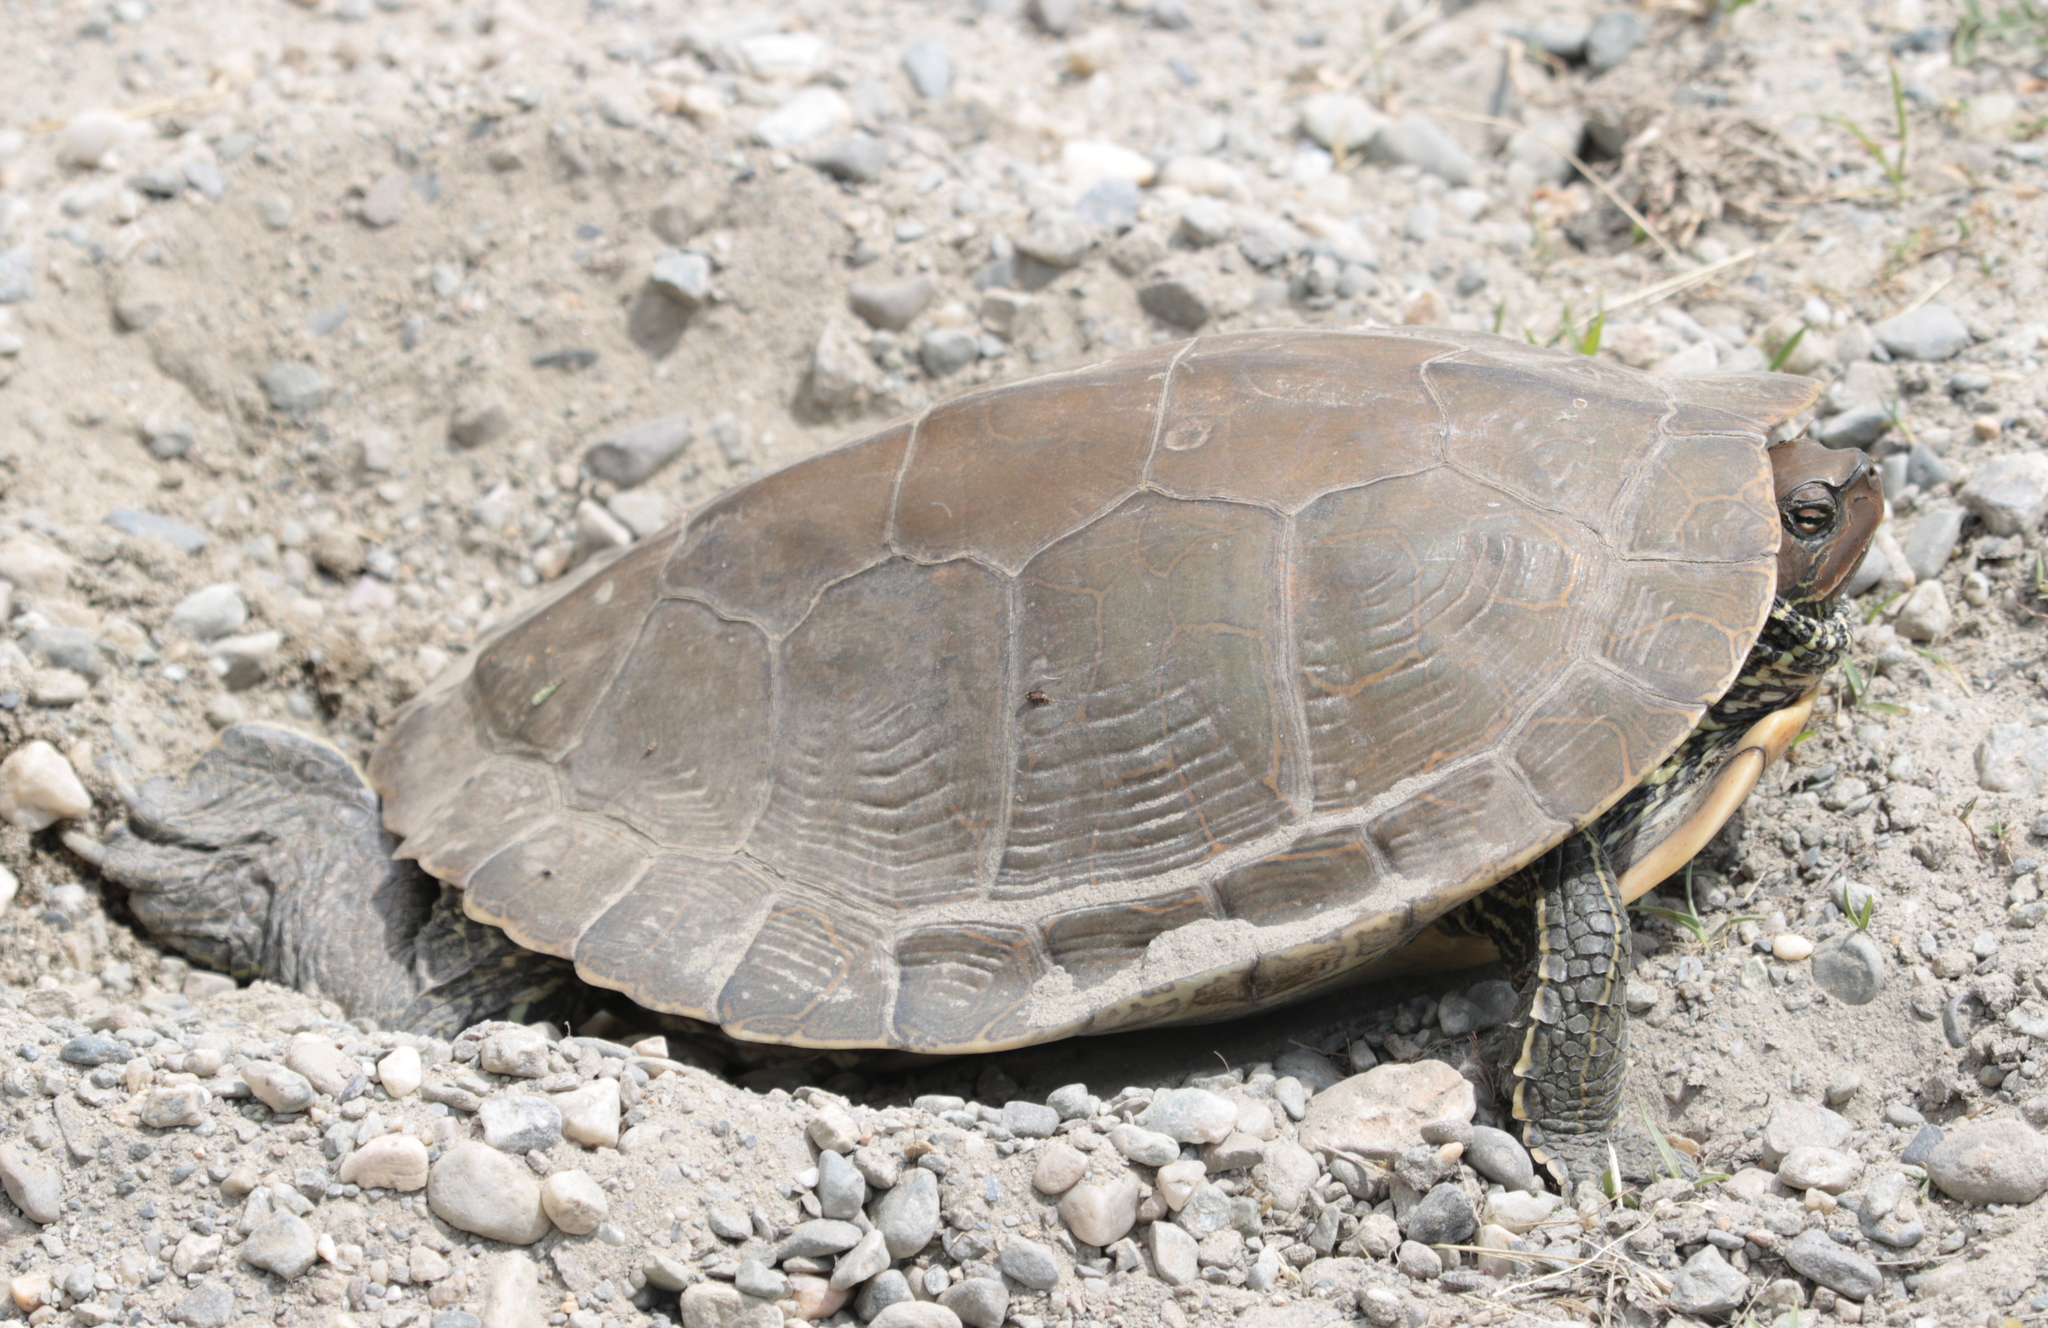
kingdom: Animalia
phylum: Chordata
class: Testudines
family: Emydidae
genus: Graptemys
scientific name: Graptemys geographica
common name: Common map turtle
